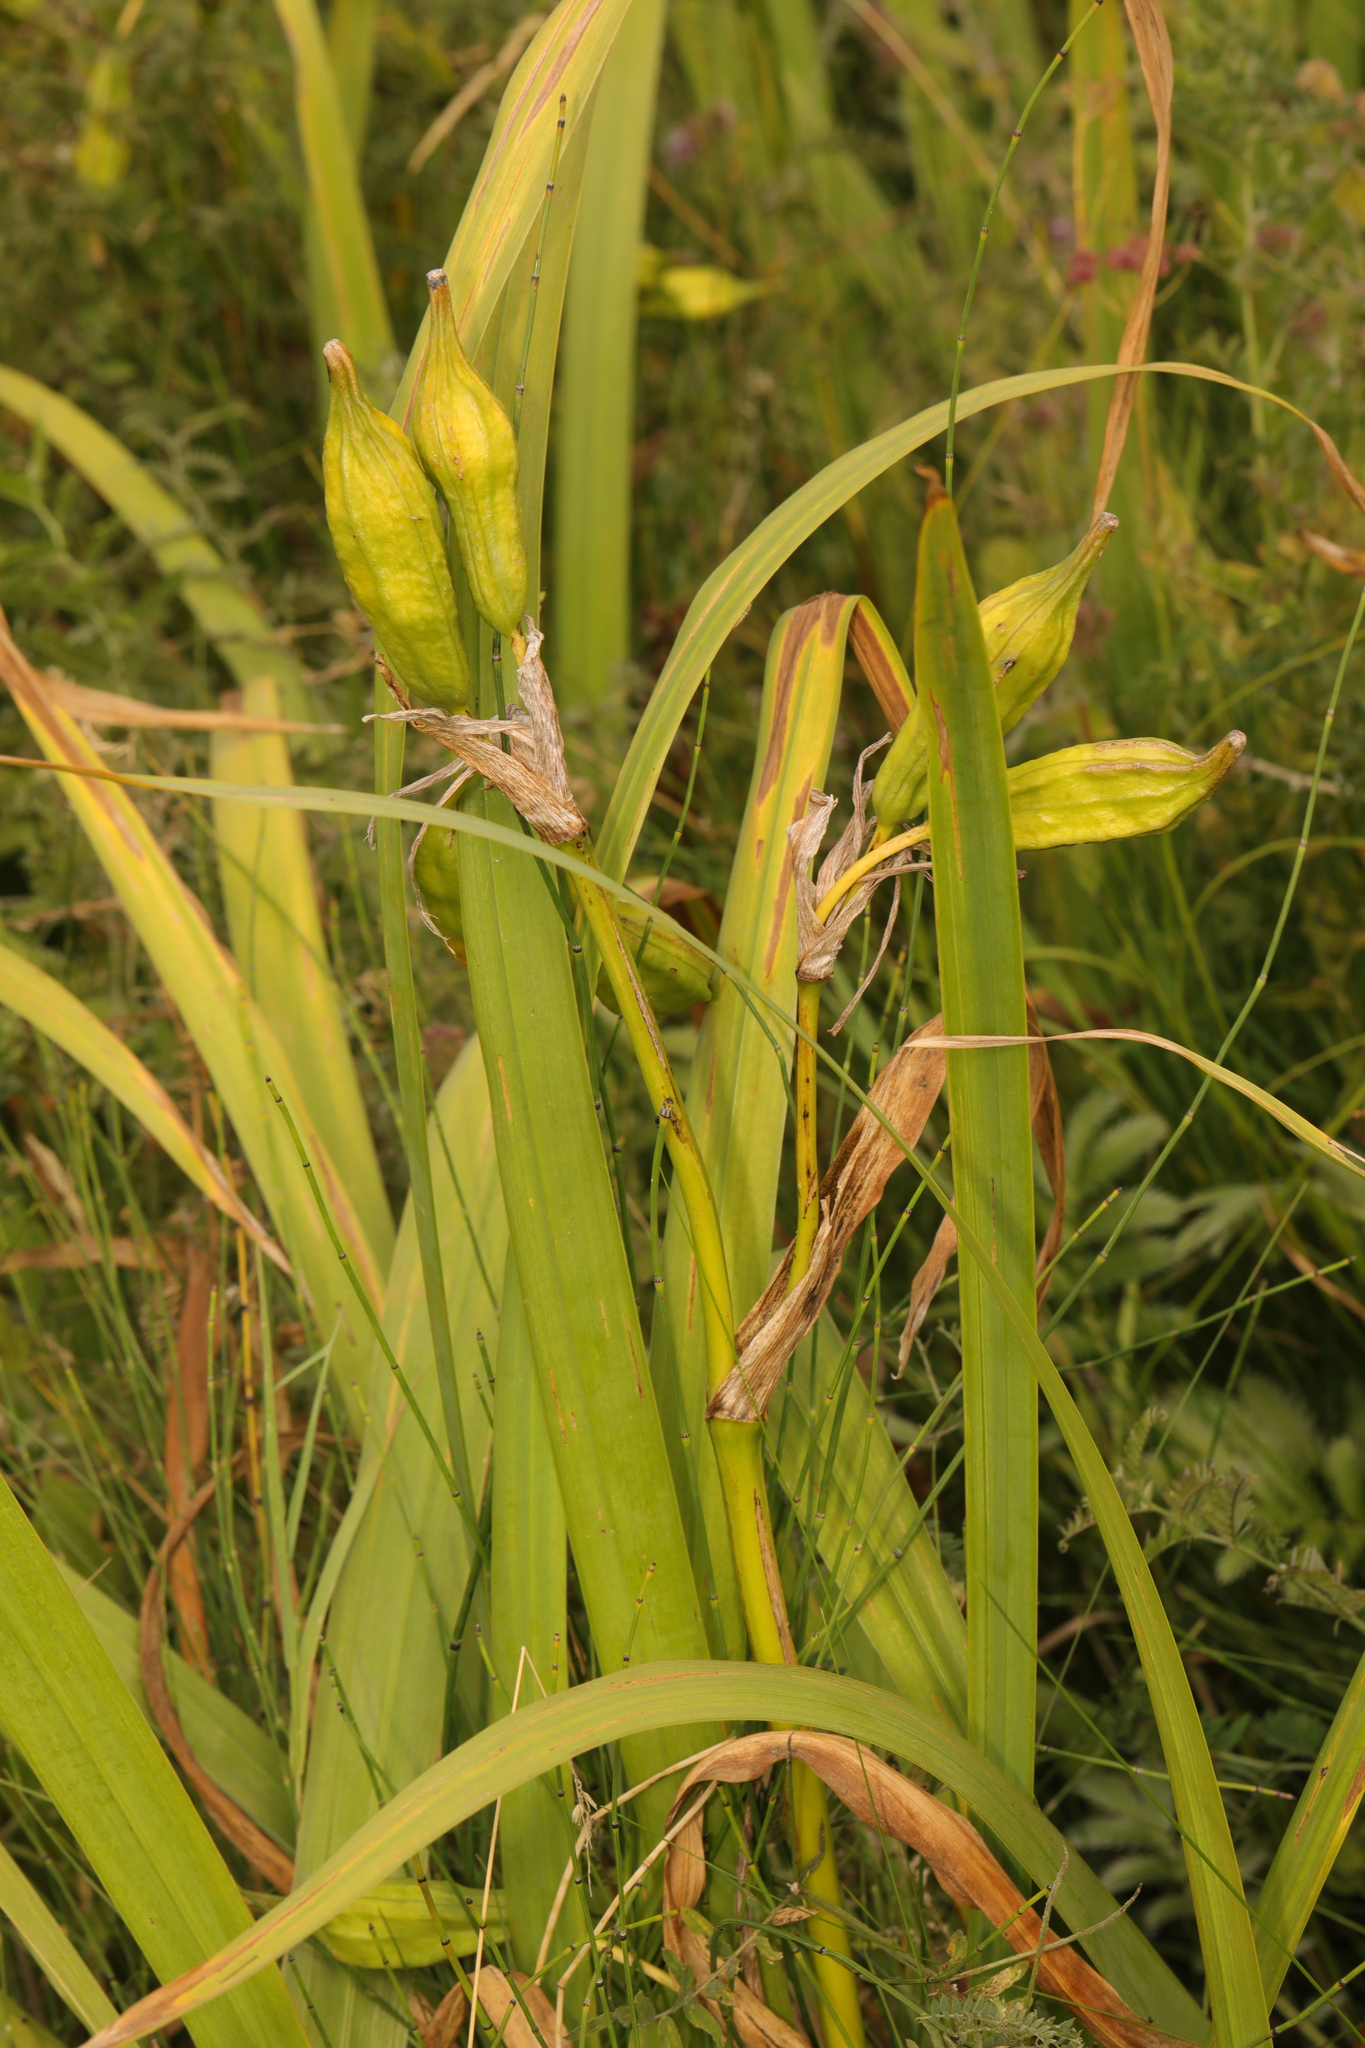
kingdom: Plantae
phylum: Tracheophyta
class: Liliopsida
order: Asparagales
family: Iridaceae
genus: Iris
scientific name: Iris pseudacorus
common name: Yellow flag
